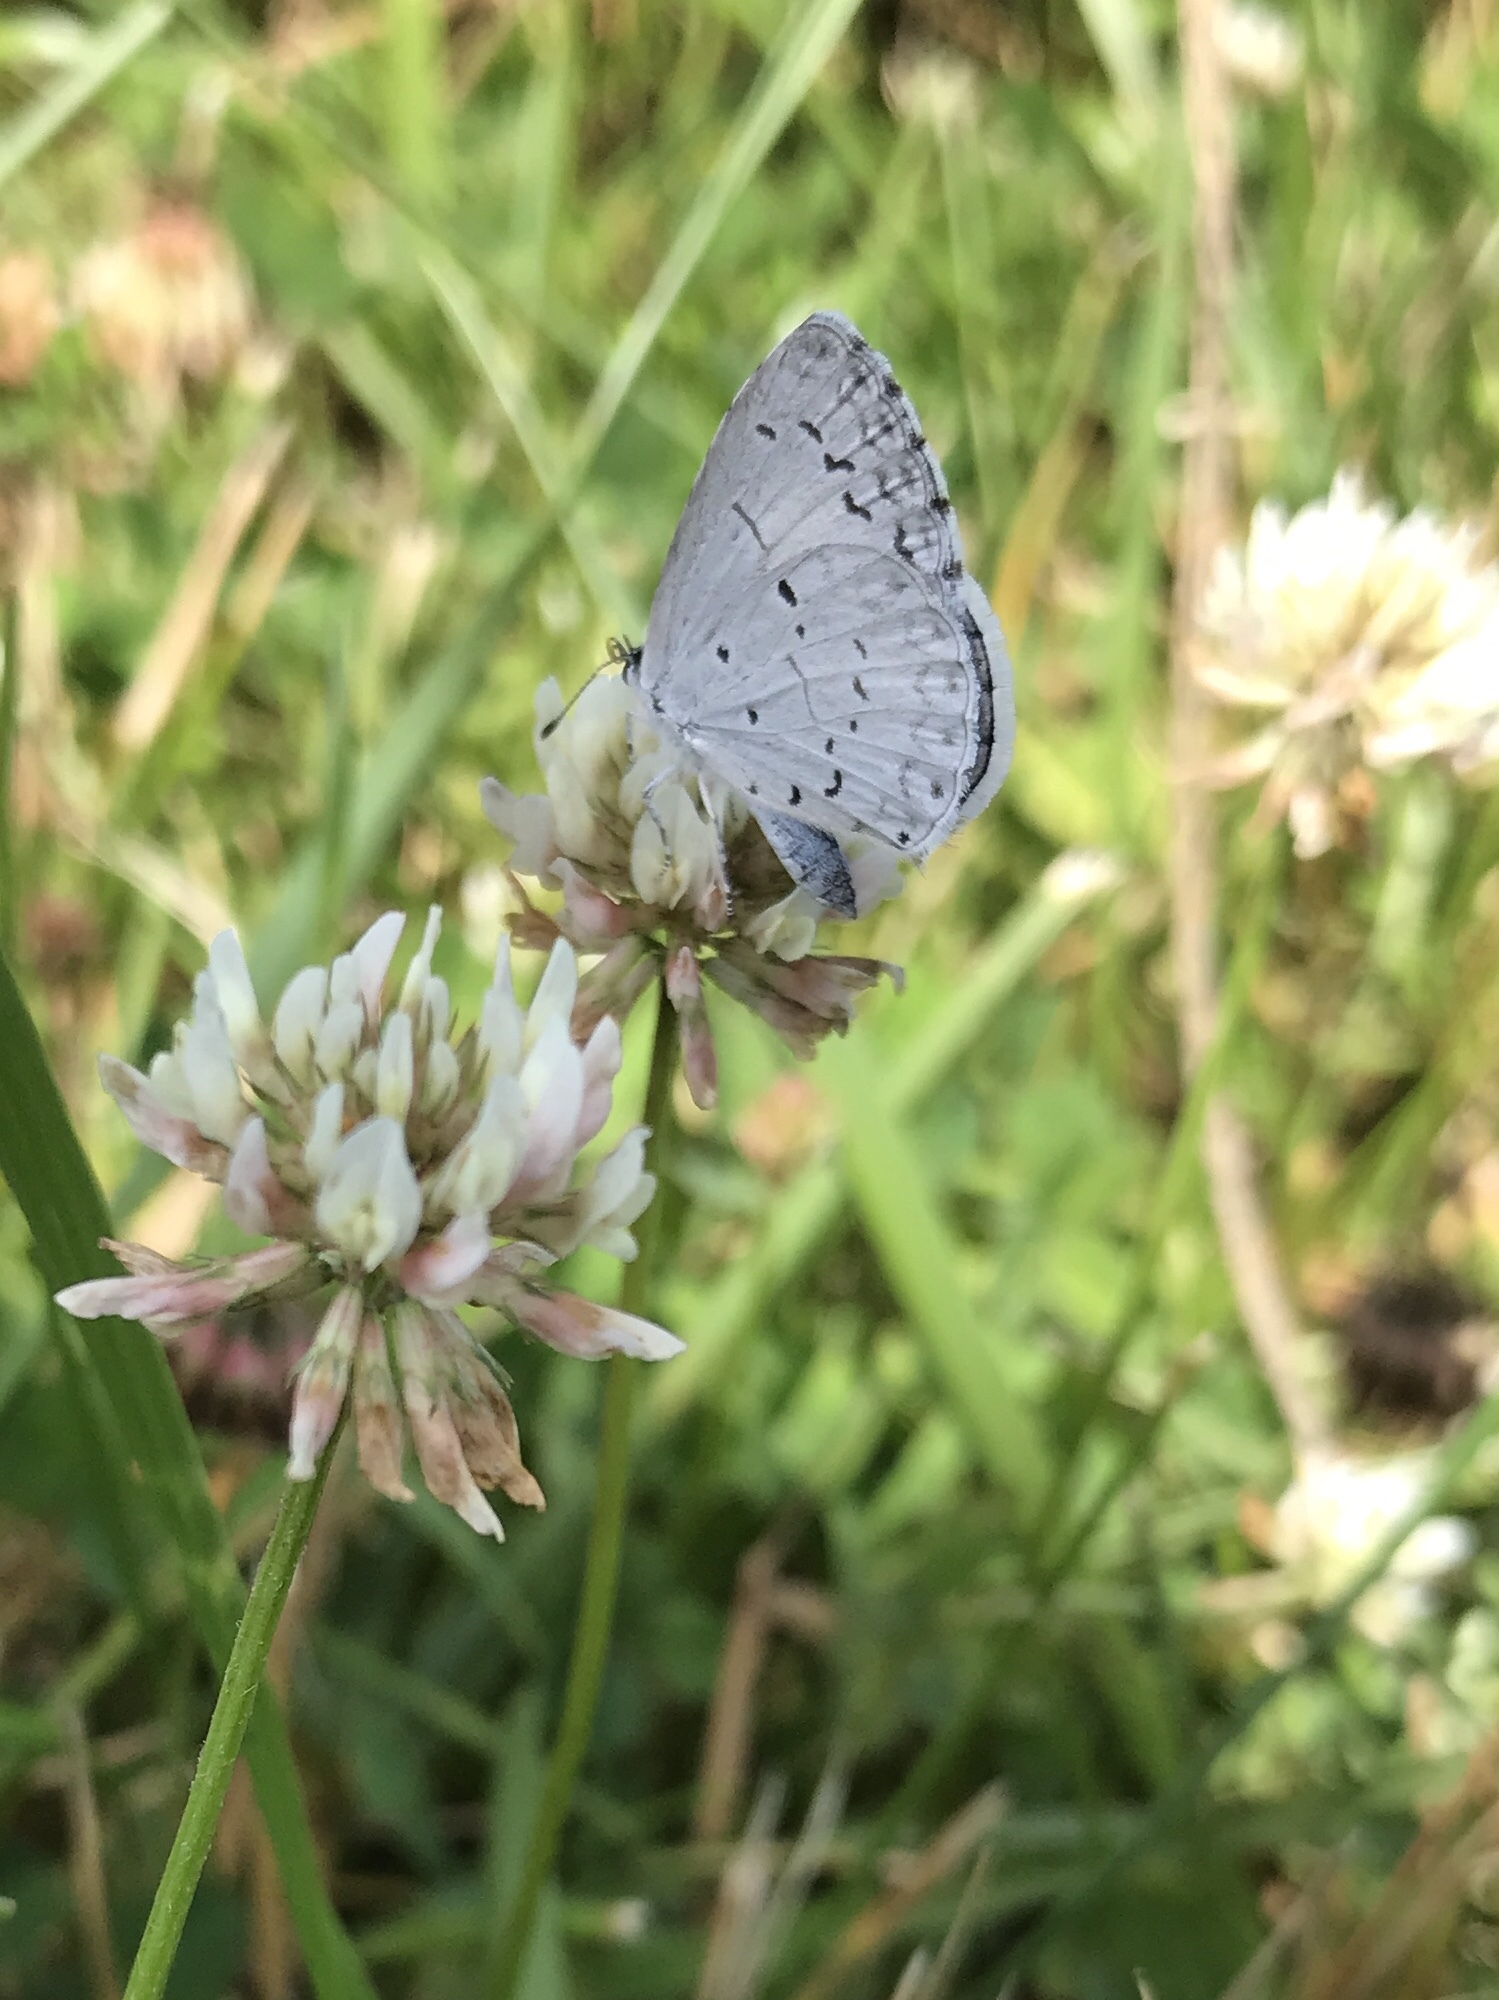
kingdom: Animalia
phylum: Arthropoda
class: Insecta
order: Lepidoptera
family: Lycaenidae
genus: Cyaniris
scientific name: Cyaniris neglecta
